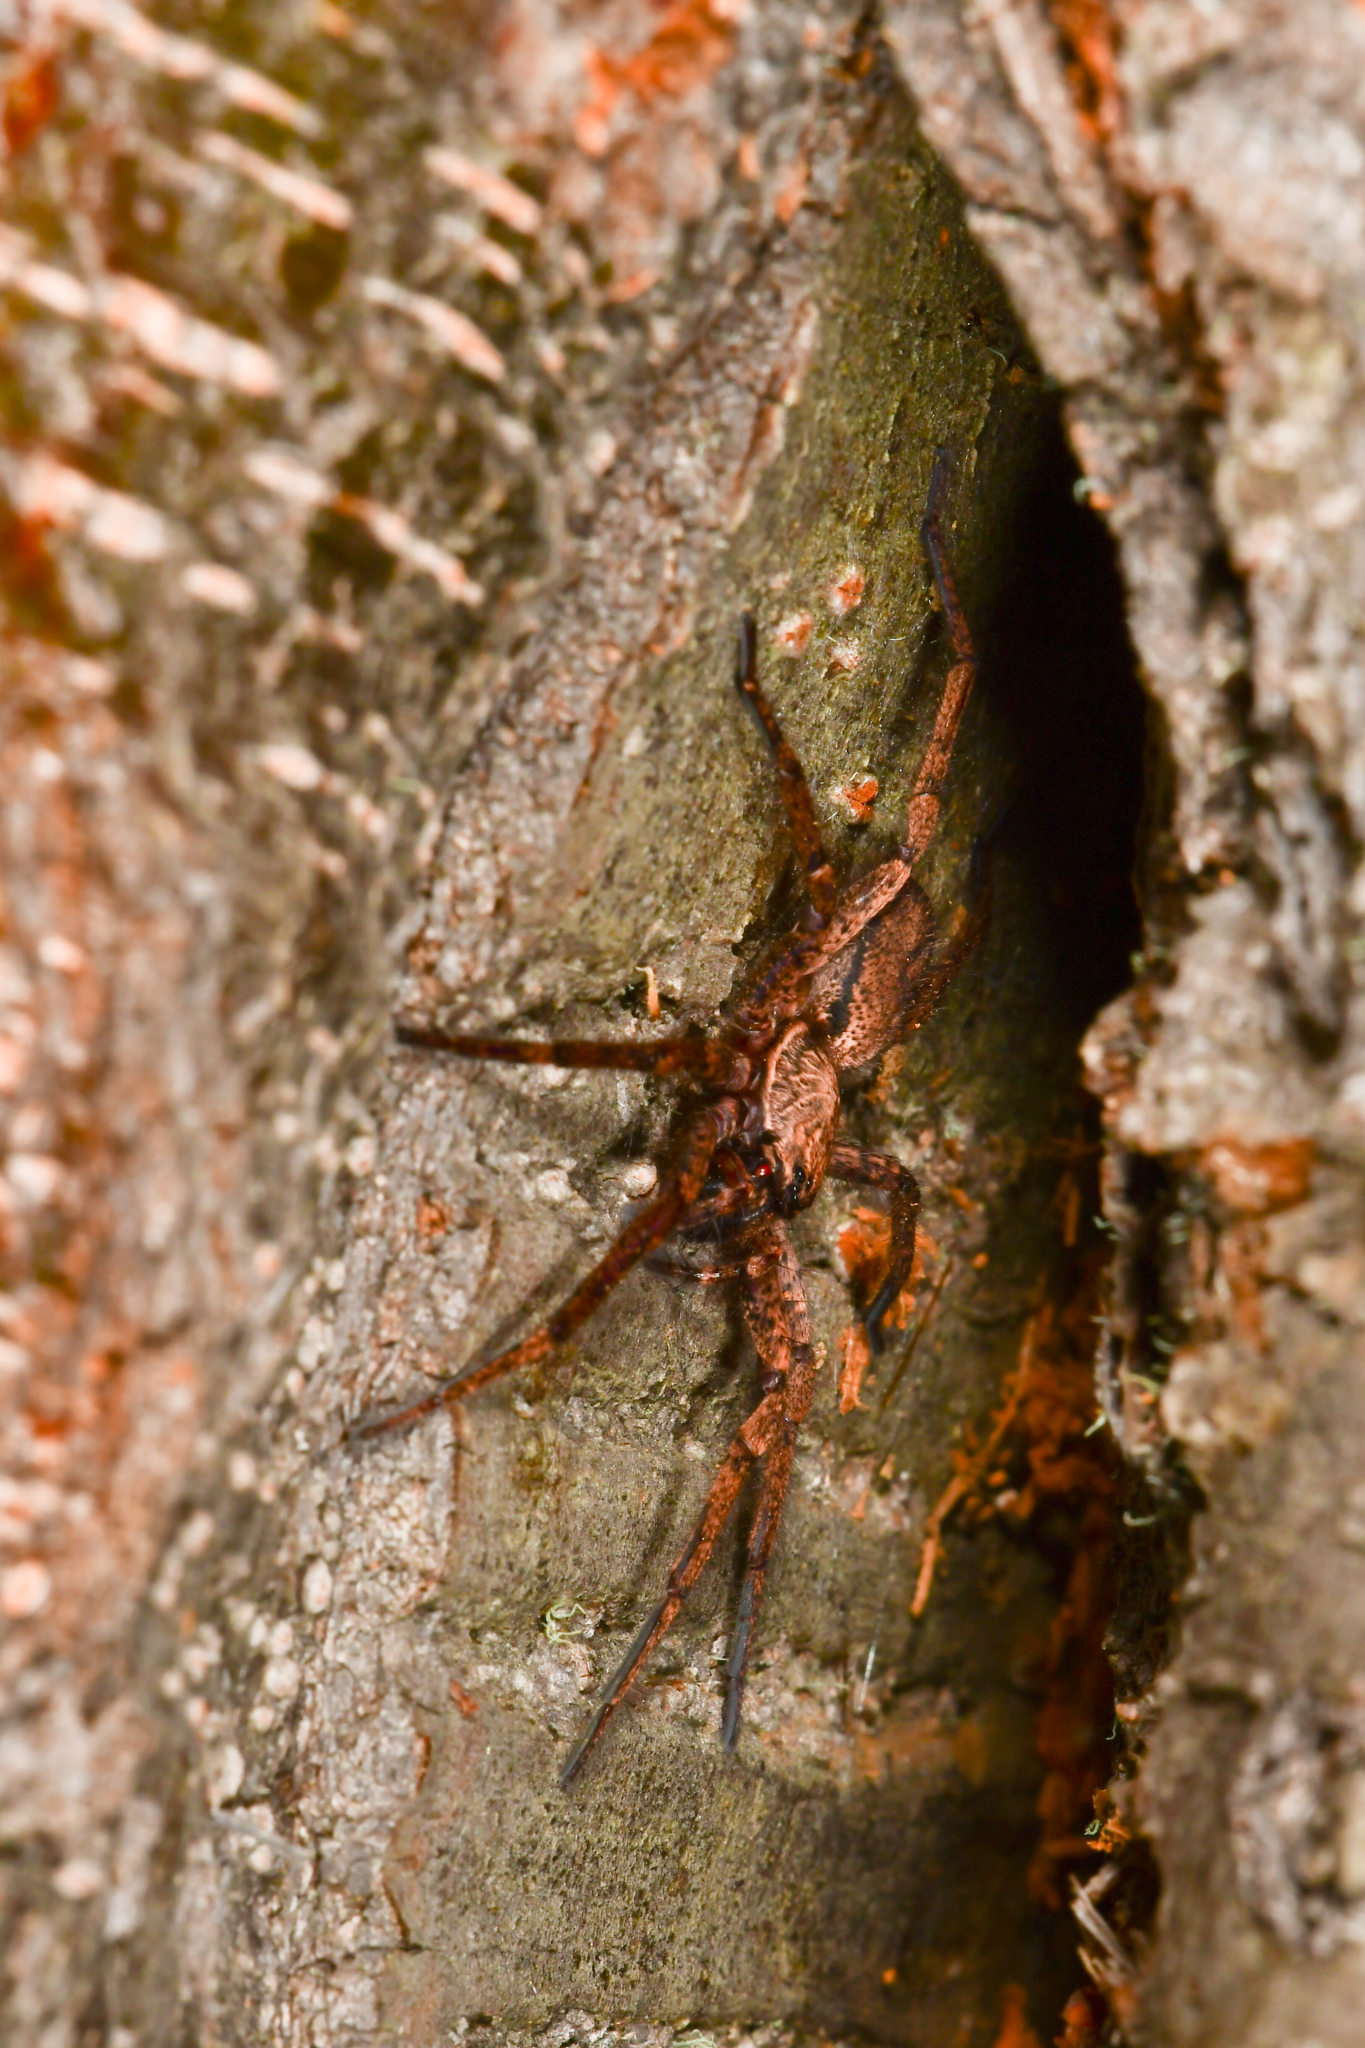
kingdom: Animalia
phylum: Arthropoda
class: Arachnida
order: Araneae
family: Anyphaenidae
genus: Tomopisthes
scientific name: Tomopisthes horrendus
